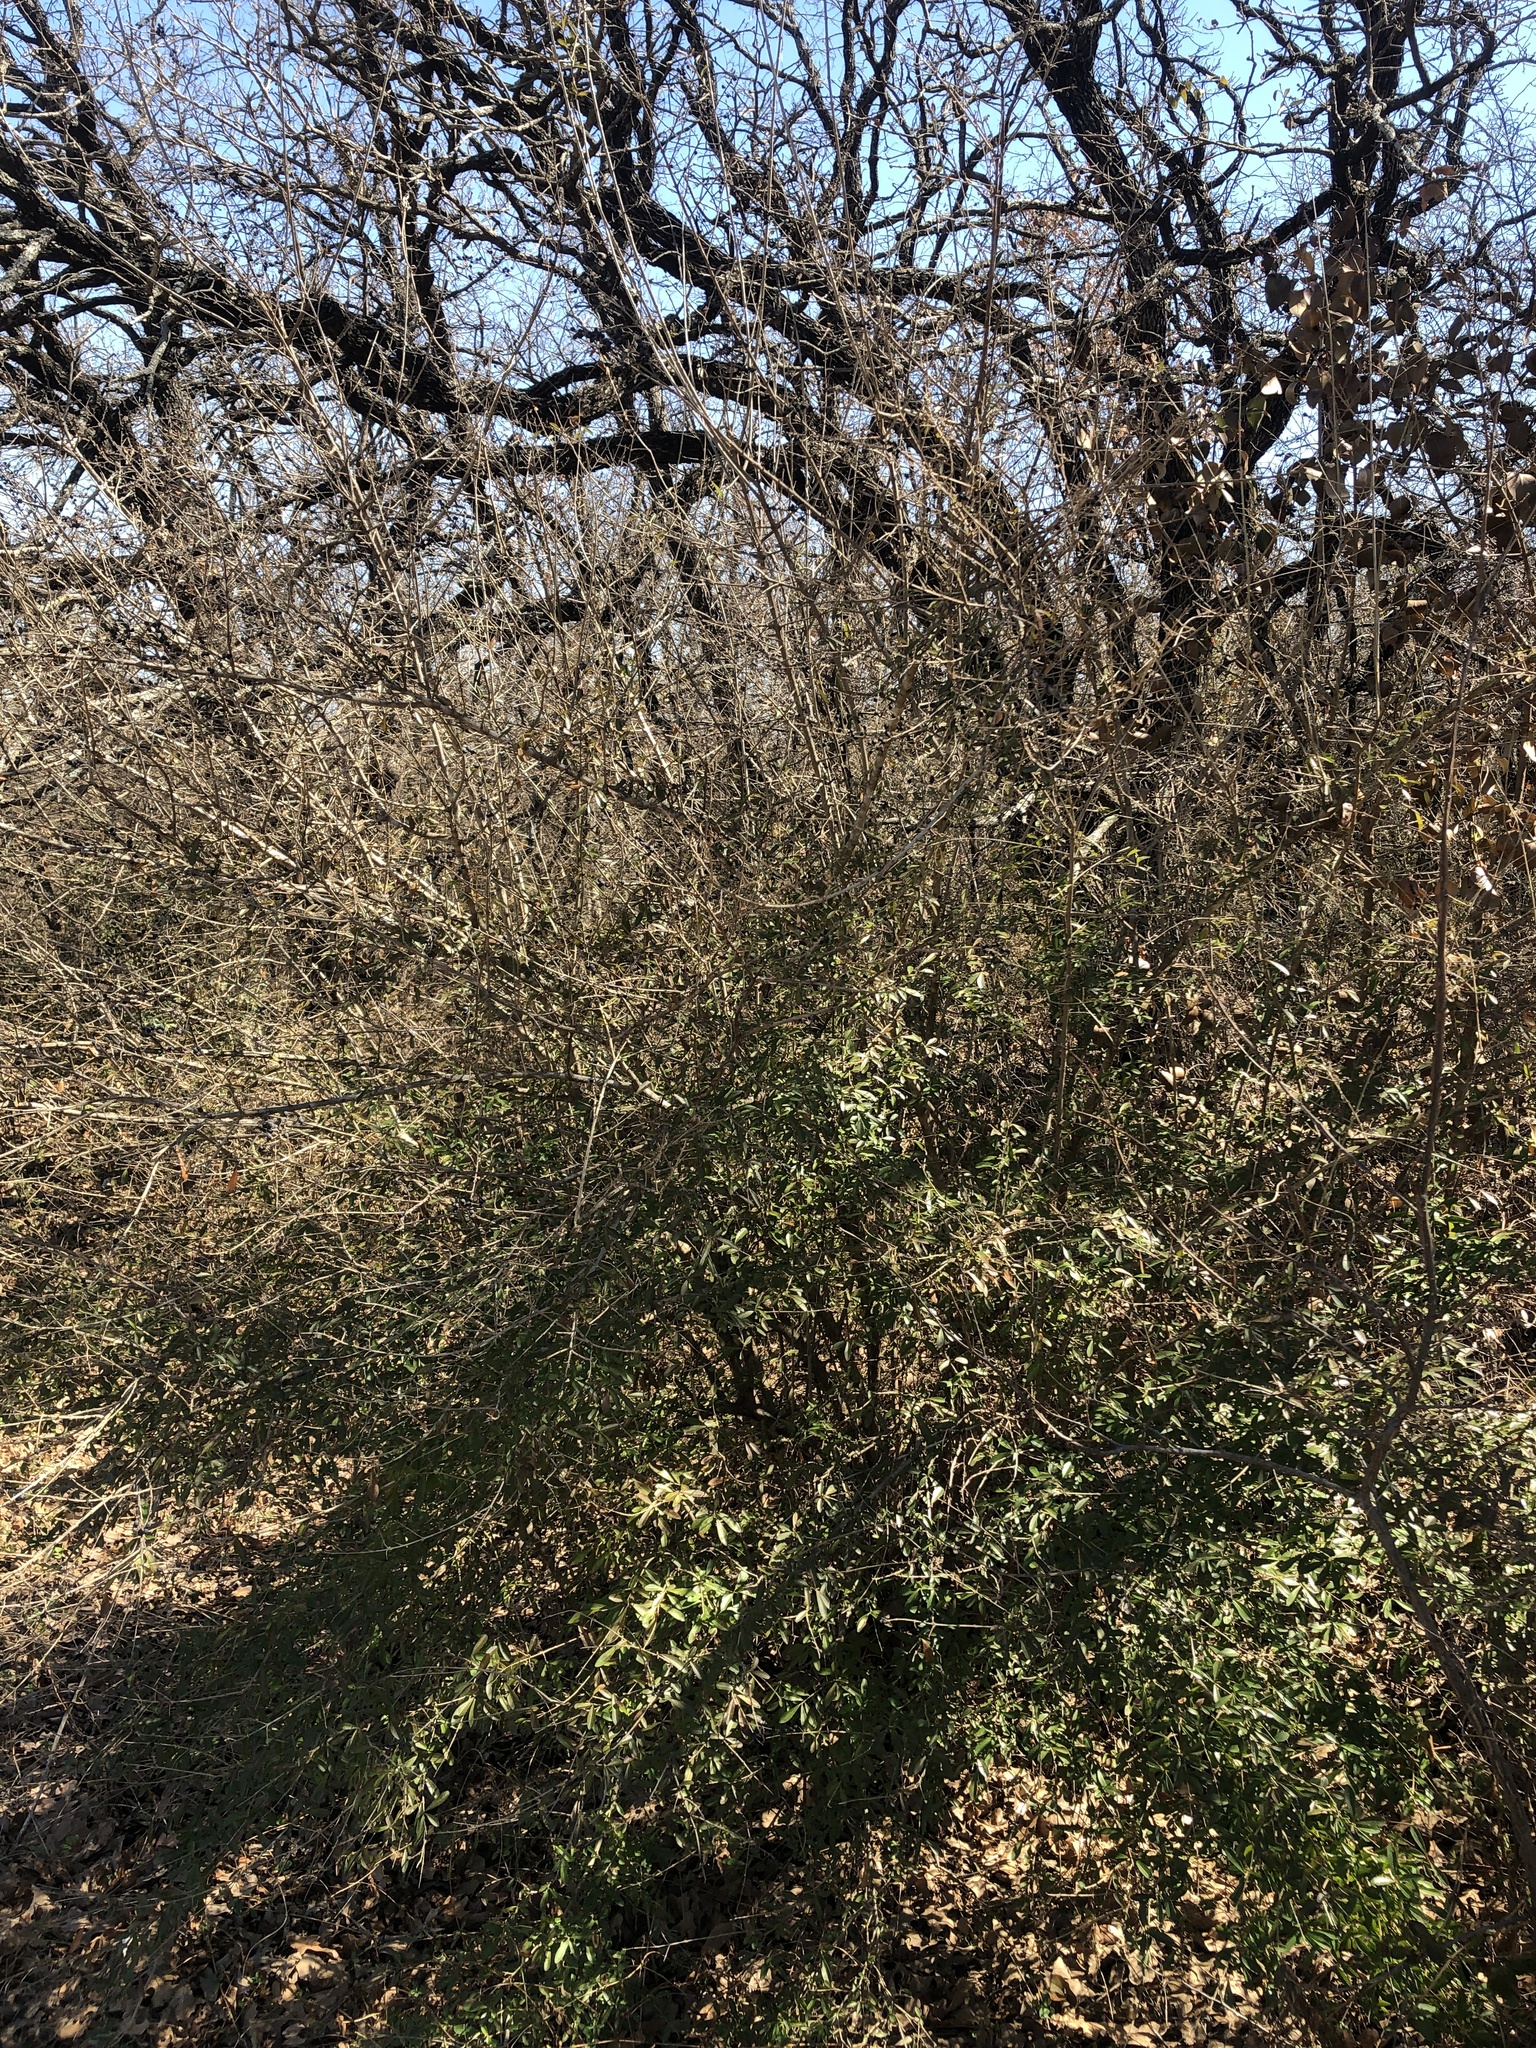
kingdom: Plantae
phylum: Tracheophyta
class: Magnoliopsida
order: Lamiales
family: Oleaceae
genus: Ligustrum
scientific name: Ligustrum quihoui
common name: Waxyleaf privet
